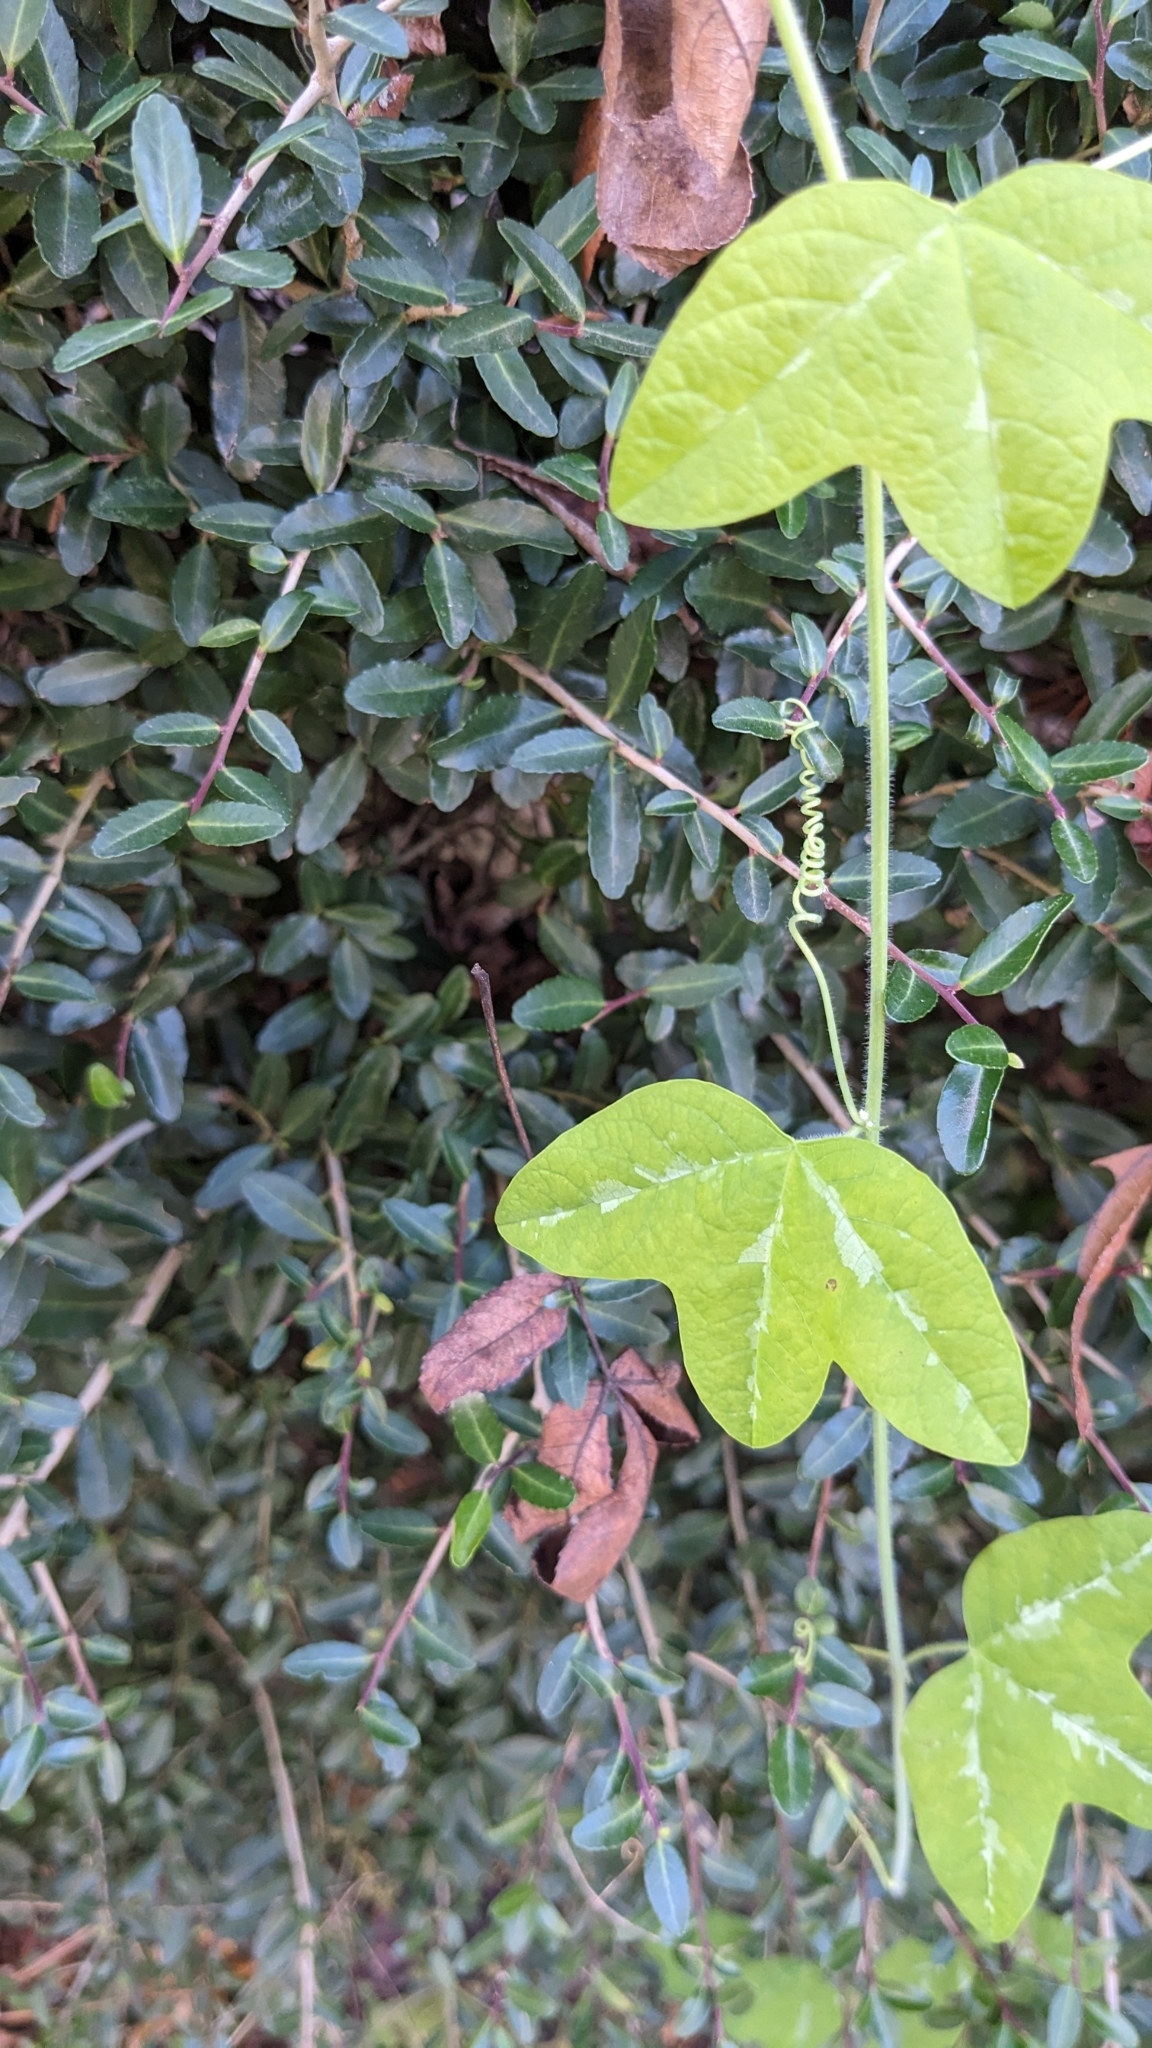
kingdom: Plantae
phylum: Tracheophyta
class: Magnoliopsida
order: Malpighiales
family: Passifloraceae
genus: Passiflora
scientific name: Passiflora lutea
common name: Yellow passionflower
